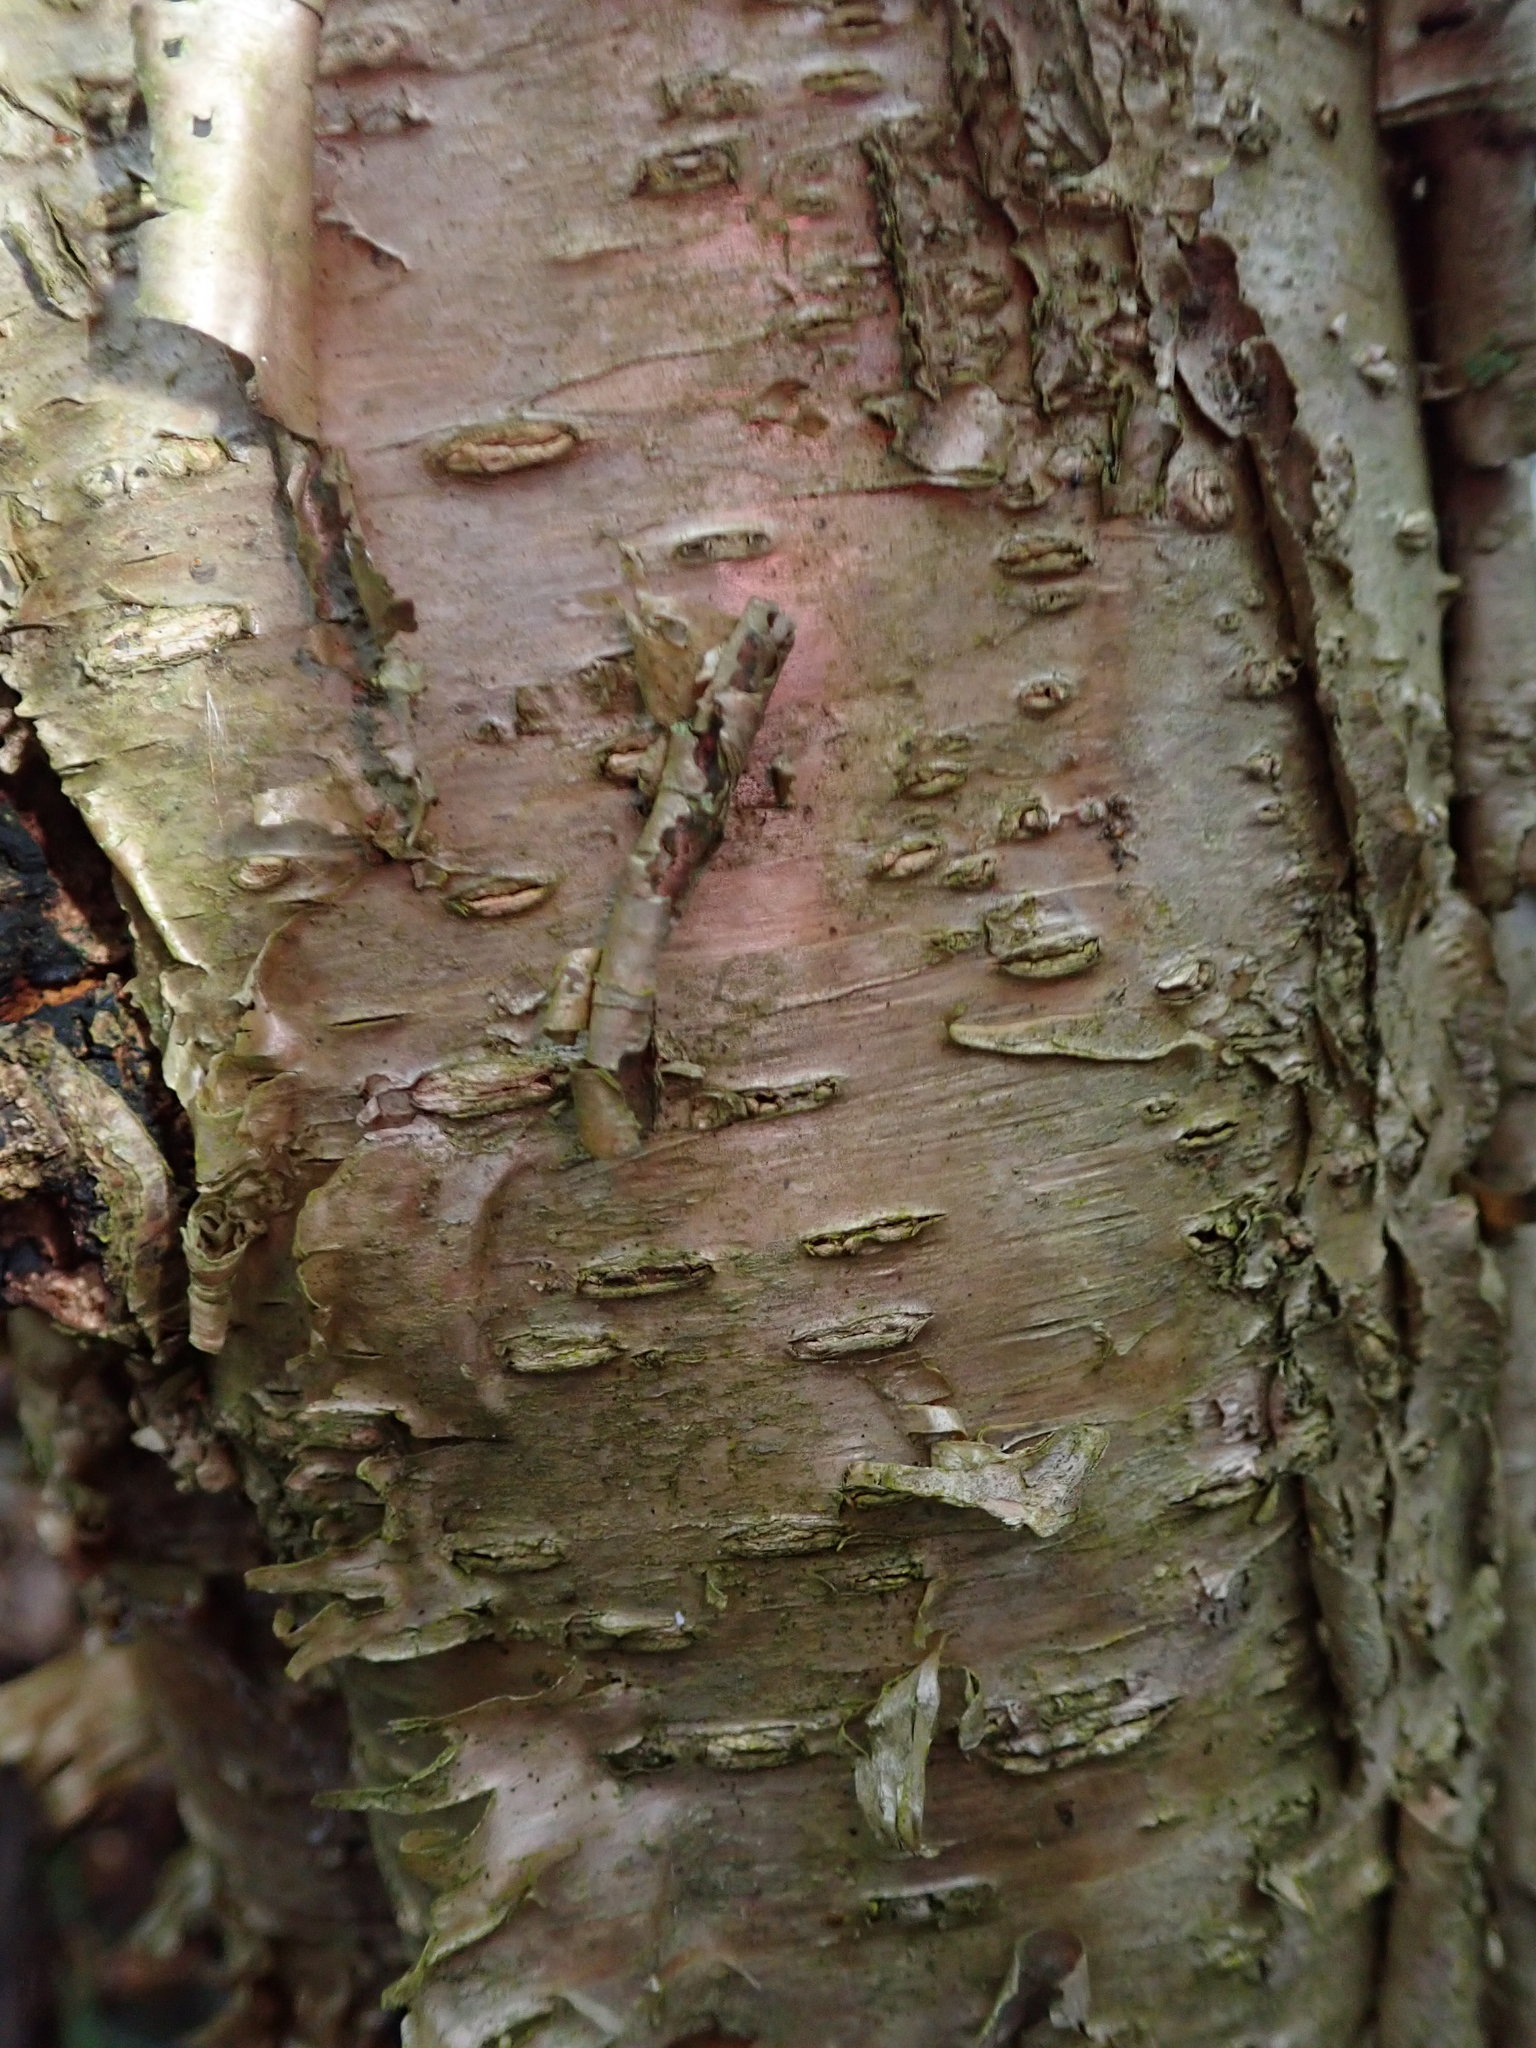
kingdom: Plantae
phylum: Tracheophyta
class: Magnoliopsida
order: Fagales
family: Betulaceae
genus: Betula
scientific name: Betula alleghaniensis
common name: Yellow birch
